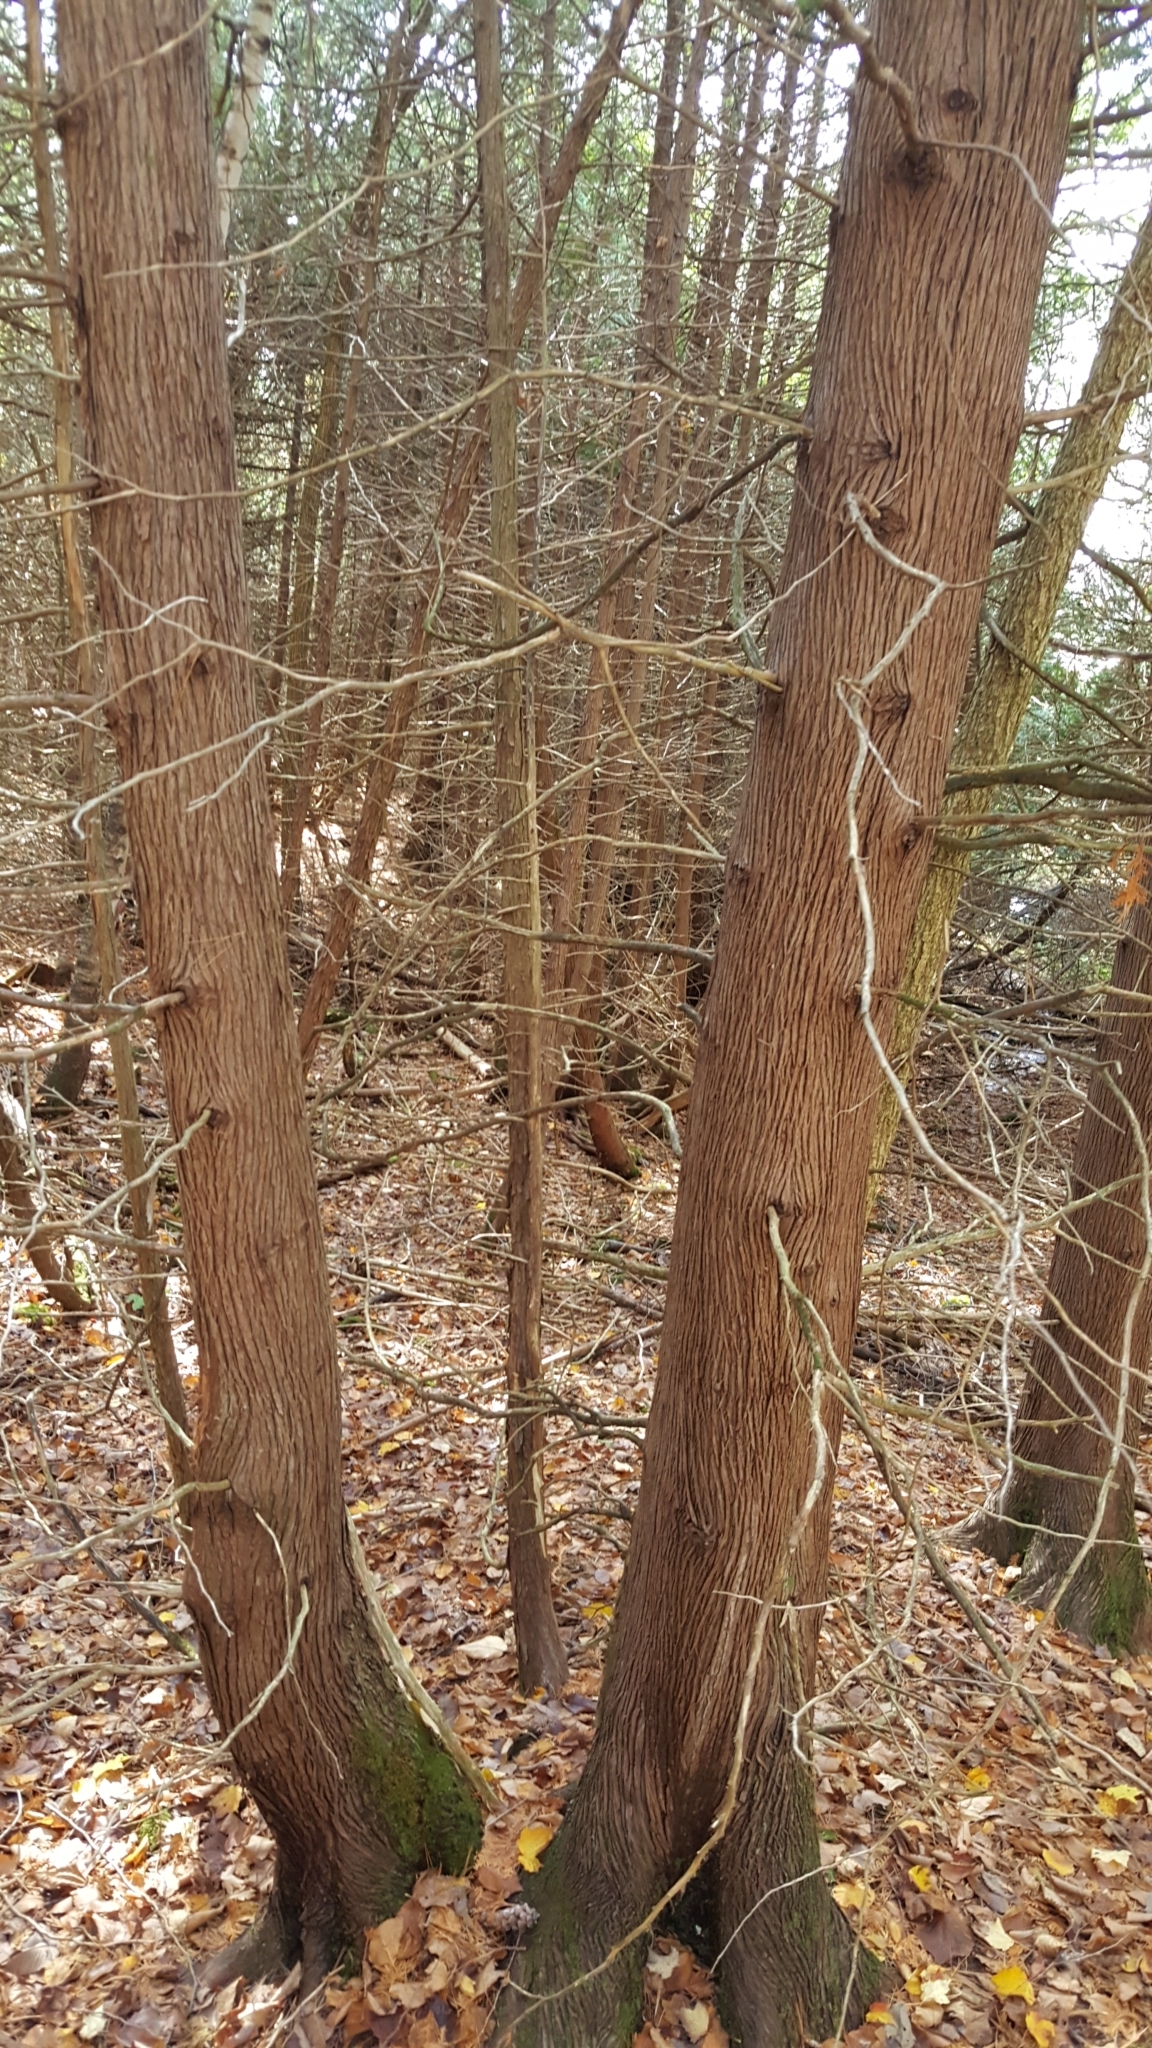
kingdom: Plantae
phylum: Tracheophyta
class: Pinopsida
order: Pinales
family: Cupressaceae
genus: Thuja
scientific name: Thuja occidentalis
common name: Northern white-cedar
